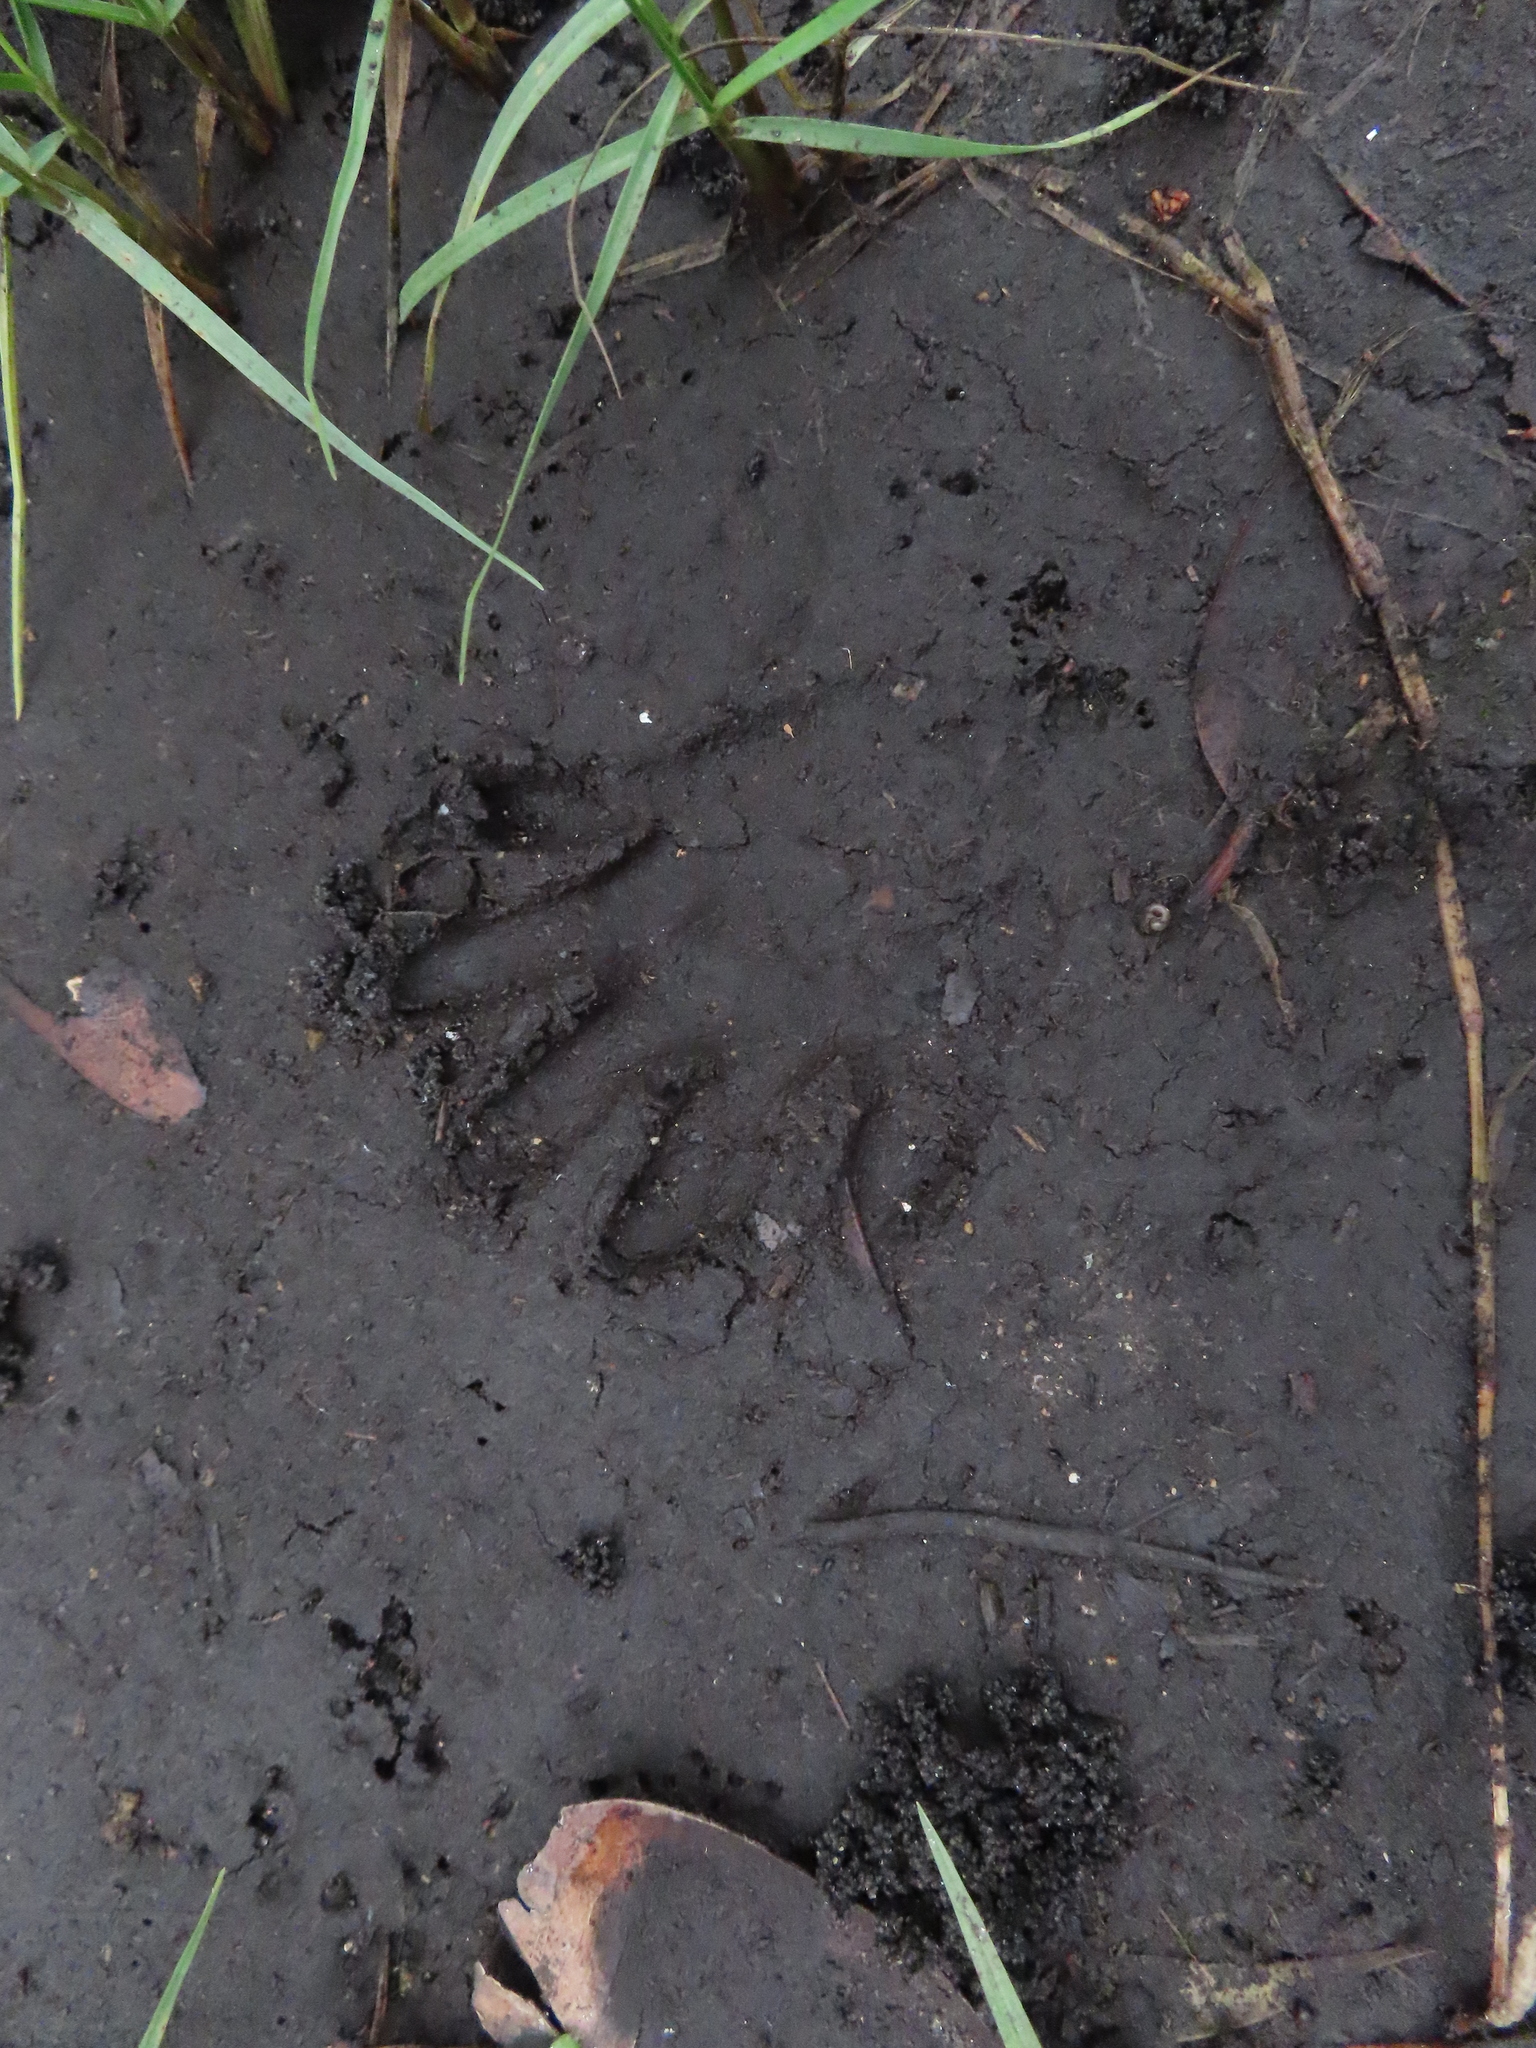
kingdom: Animalia
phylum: Chordata
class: Mammalia
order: Carnivora
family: Procyonidae
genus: Procyon
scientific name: Procyon lotor
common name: Raccoon
